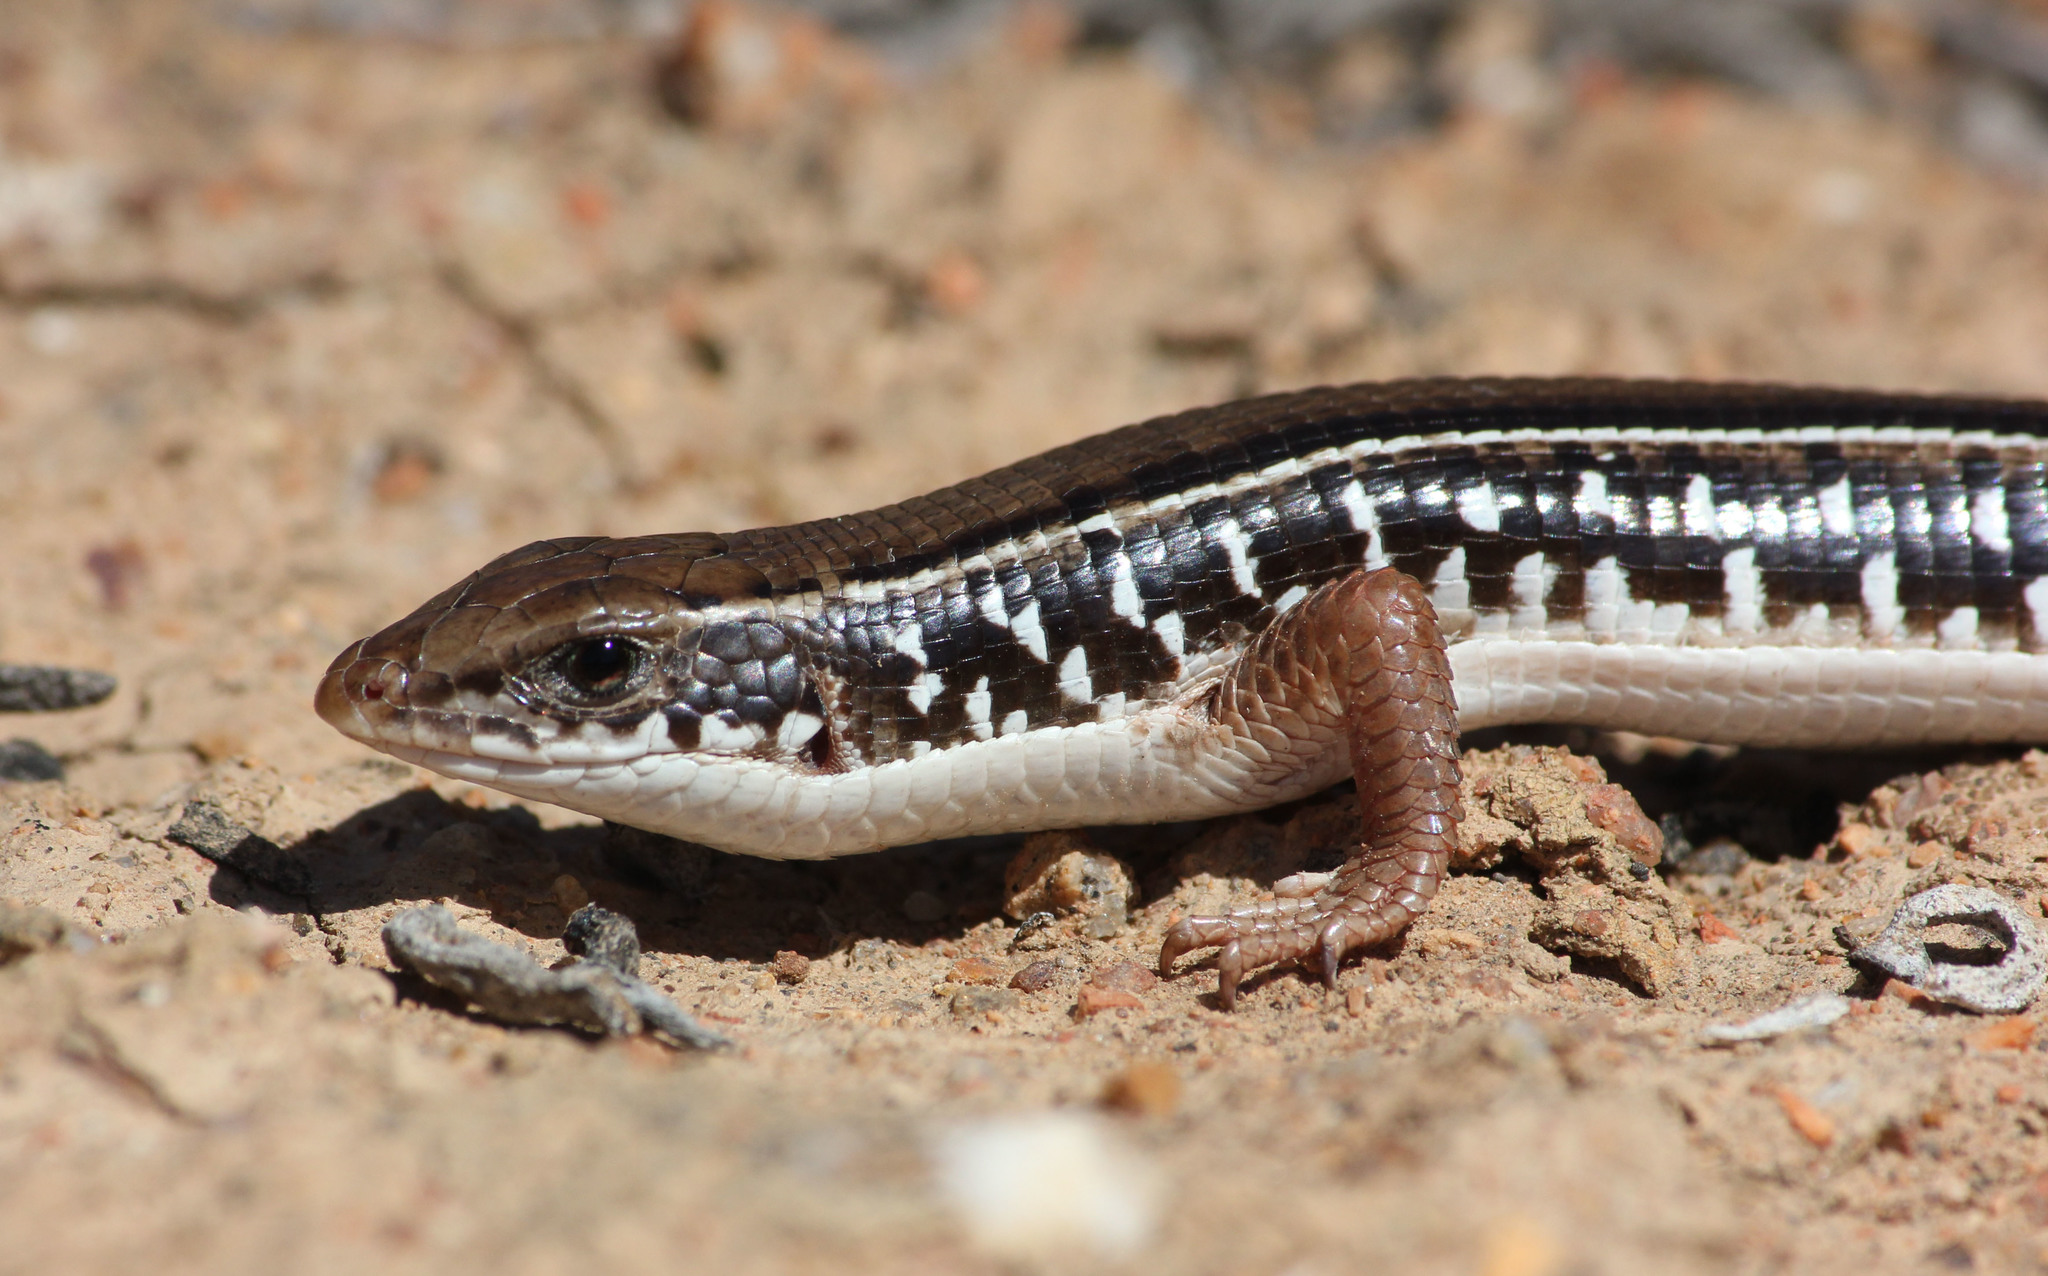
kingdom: Animalia
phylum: Chordata
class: Squamata
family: Gerrhosauridae
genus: Gerrhosaurus
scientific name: Gerrhosaurus typicus
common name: Karoo plated lizard
